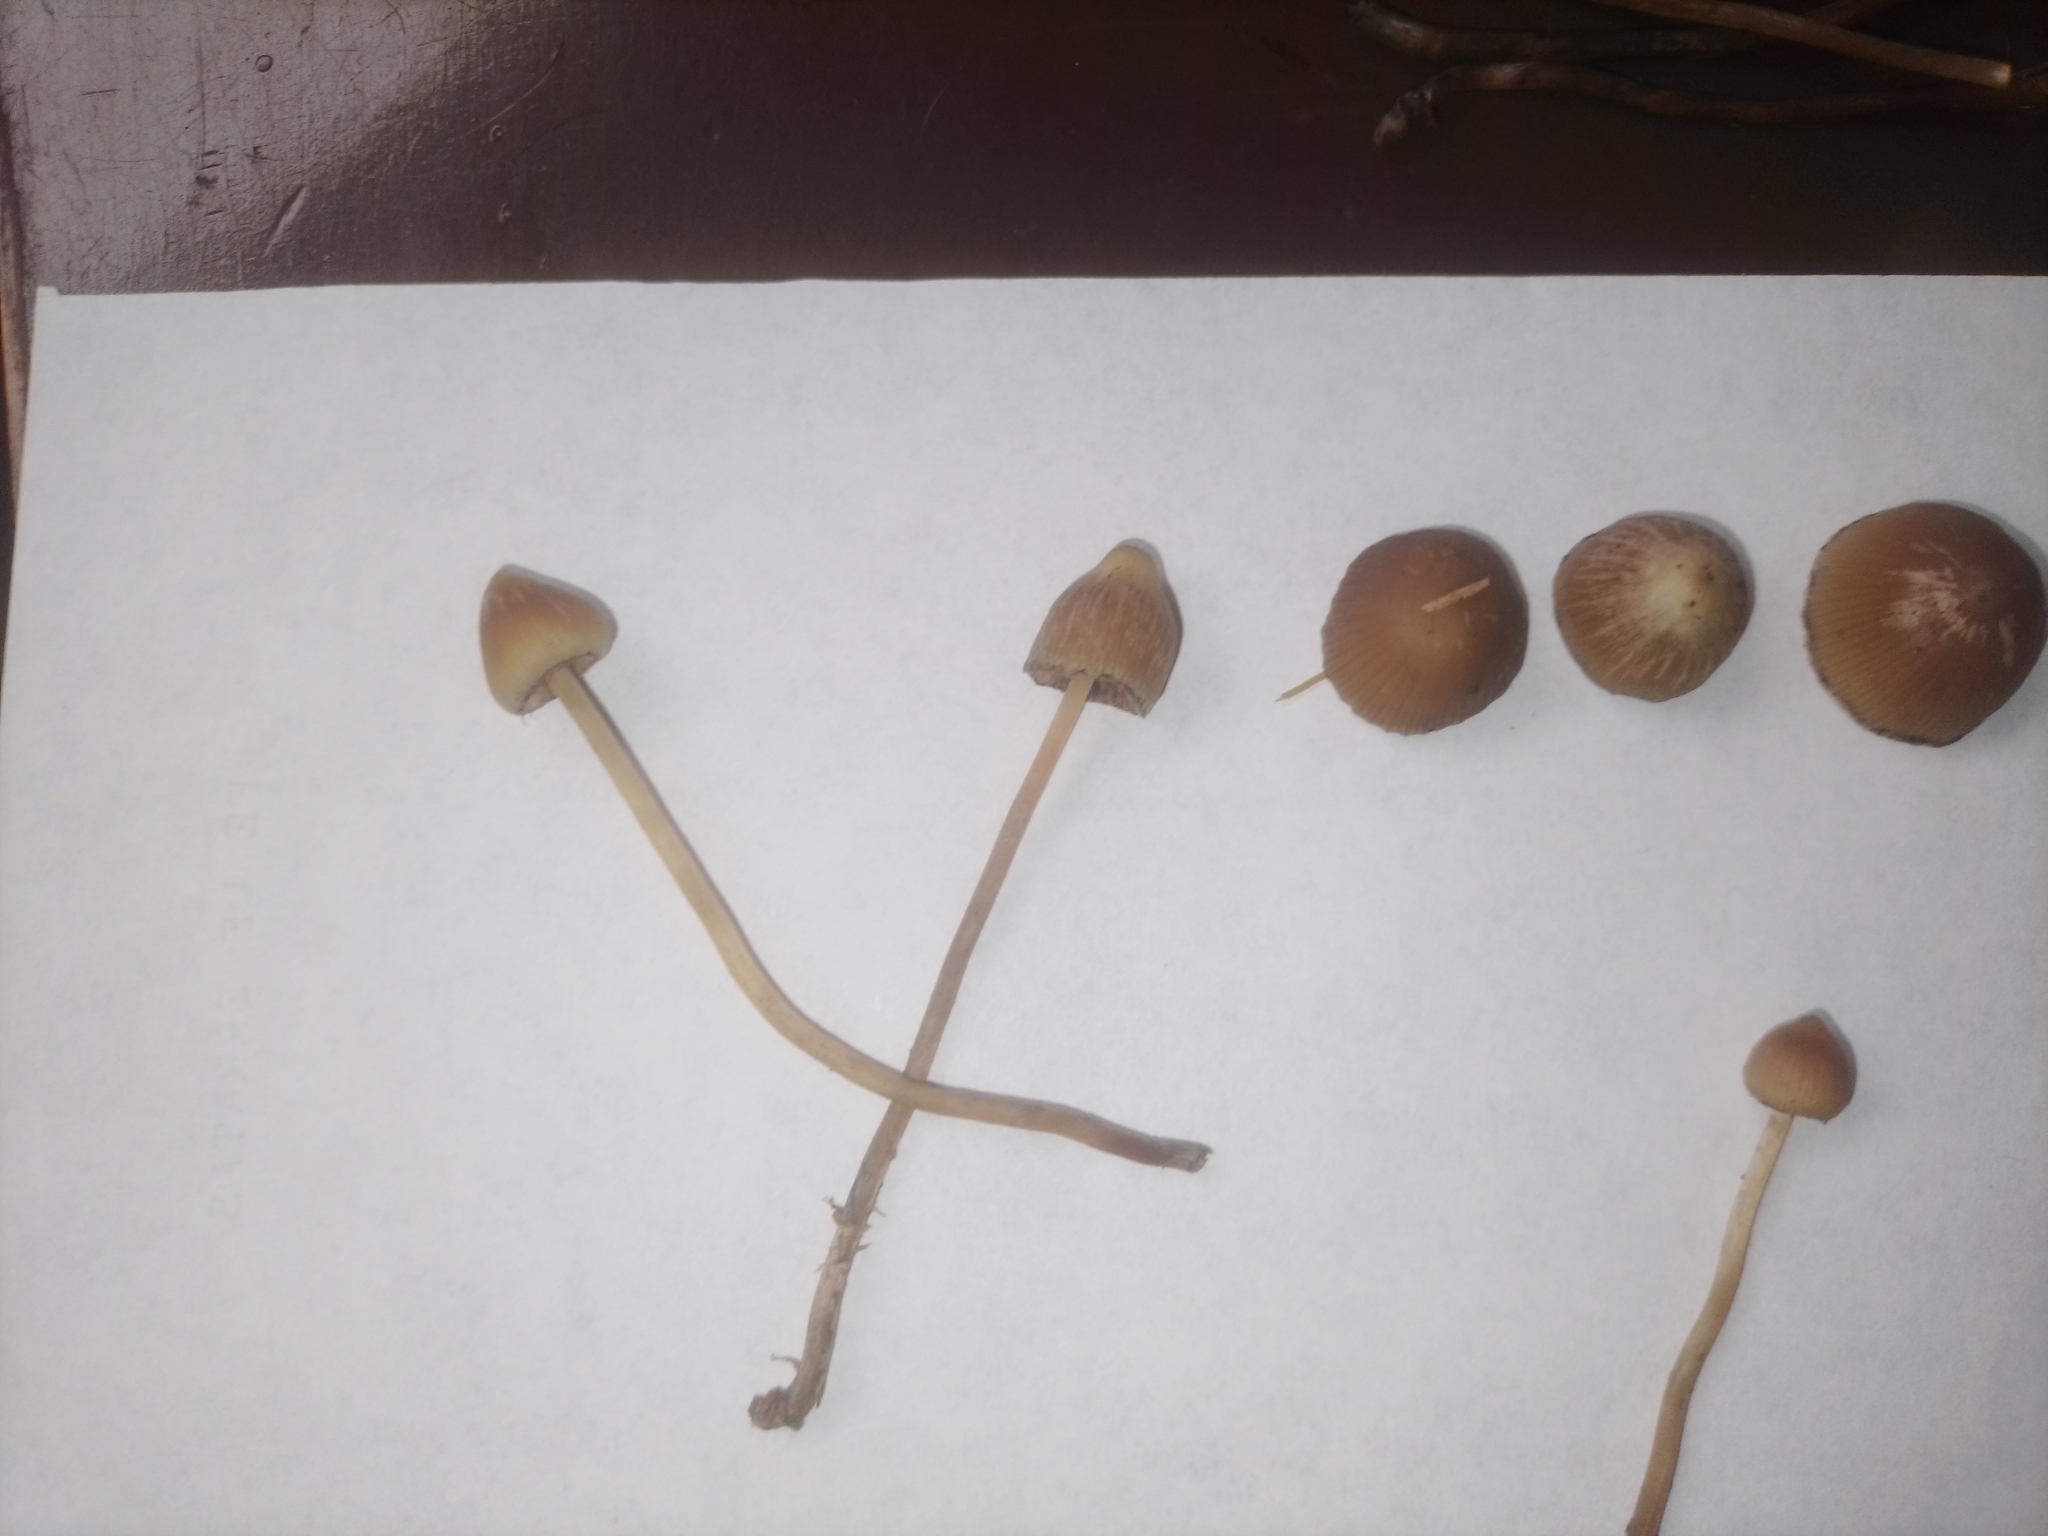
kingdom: Fungi
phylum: Basidiomycota
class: Agaricomycetes
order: Agaricales
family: Hymenogastraceae
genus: Psilocybe
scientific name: Psilocybe mexicana
